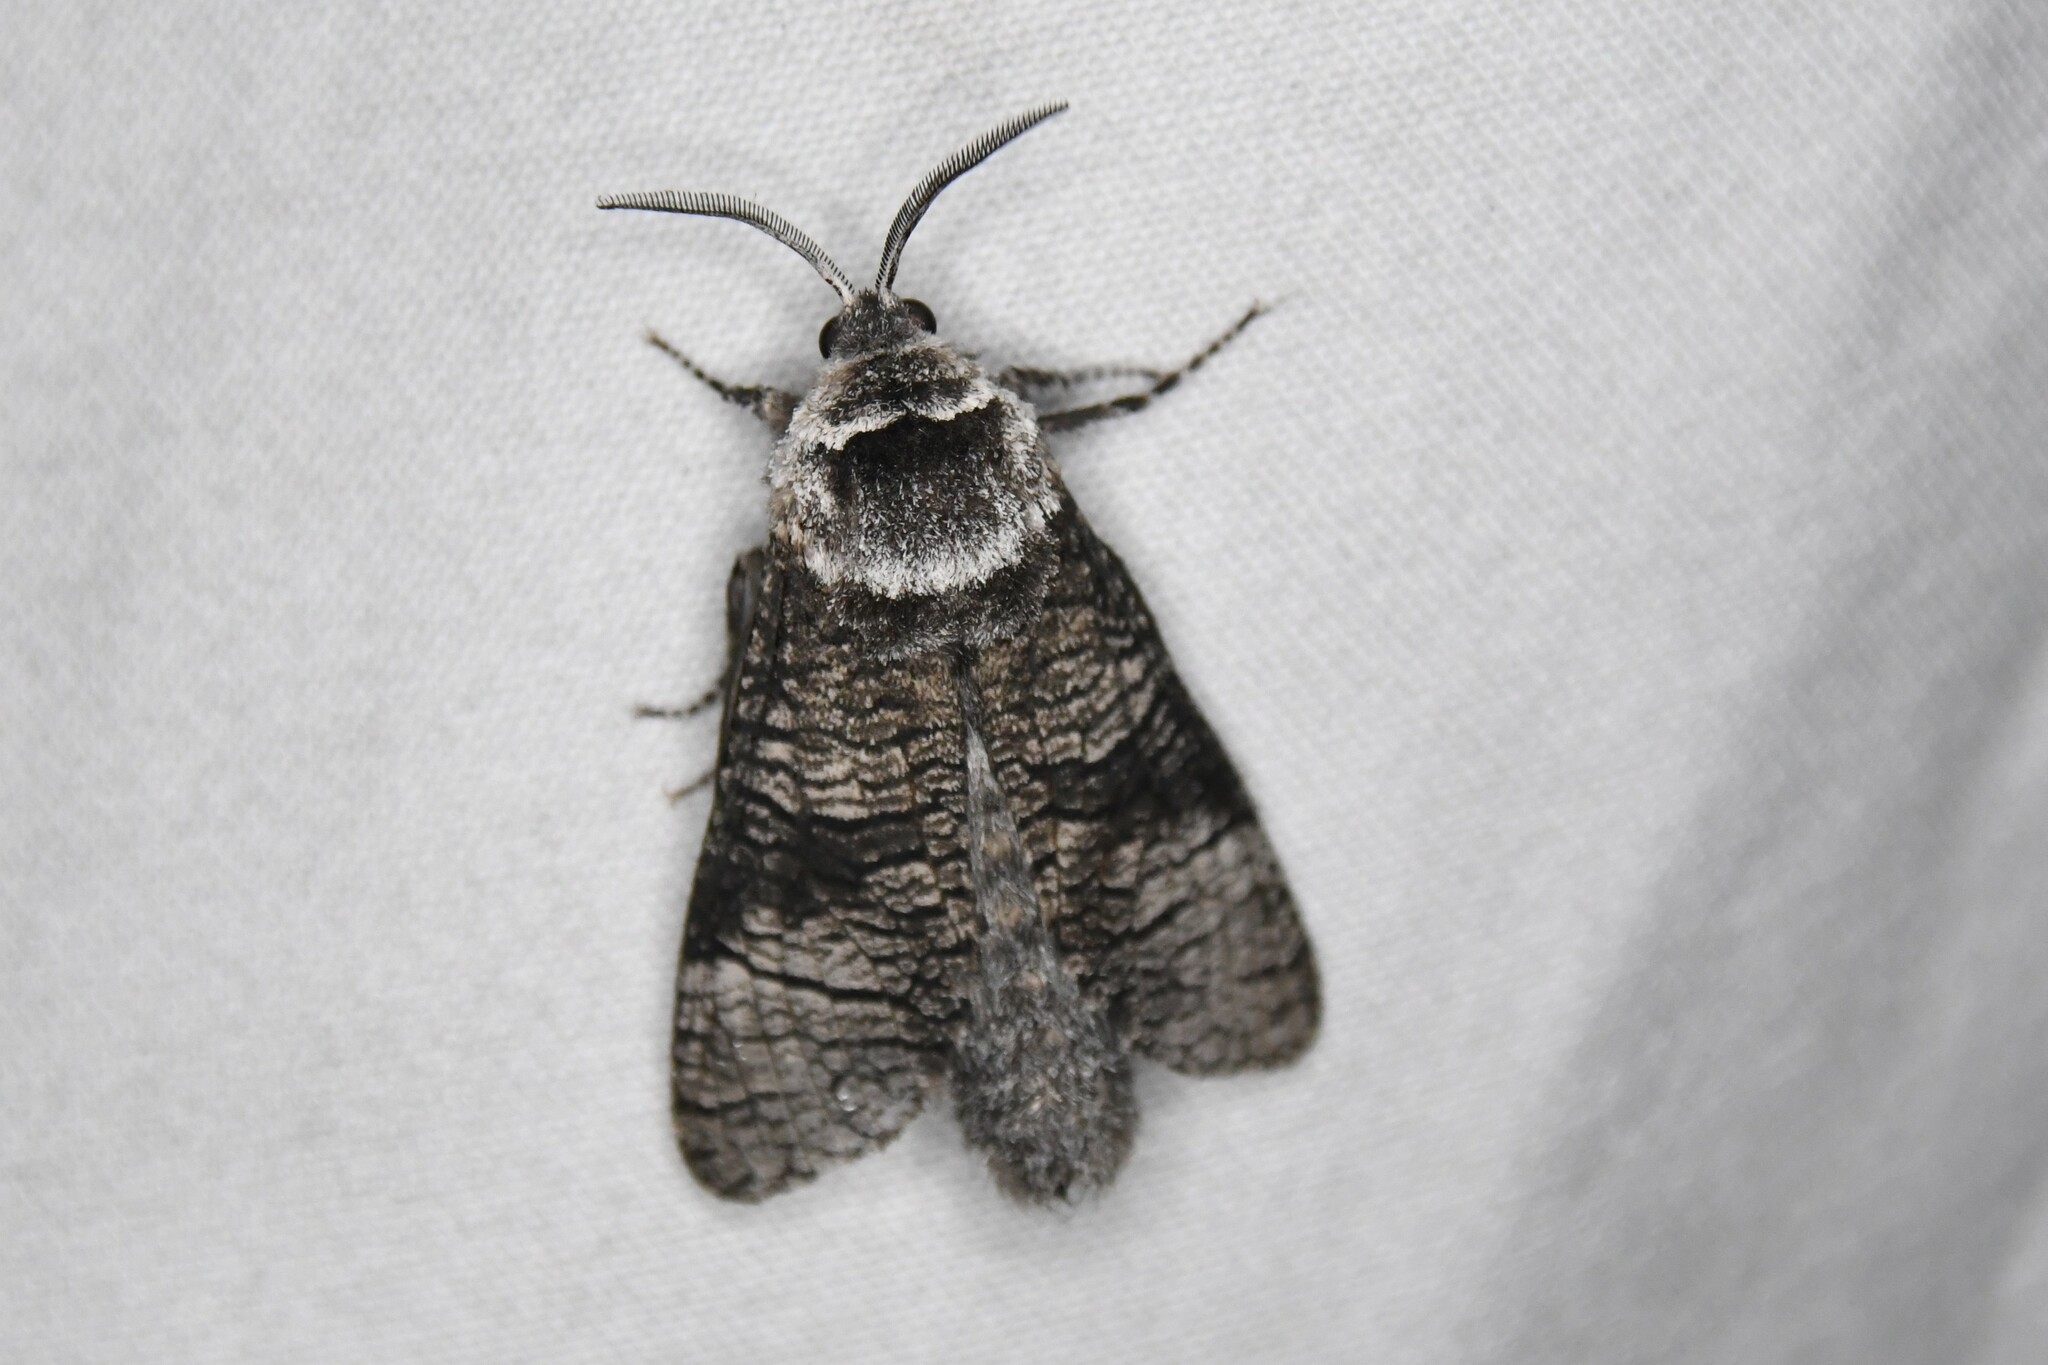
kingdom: Animalia
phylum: Arthropoda
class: Insecta
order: Lepidoptera
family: Cossidae
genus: Acossus
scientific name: Acossus centerensis
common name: Poplar carpenterworm moth
